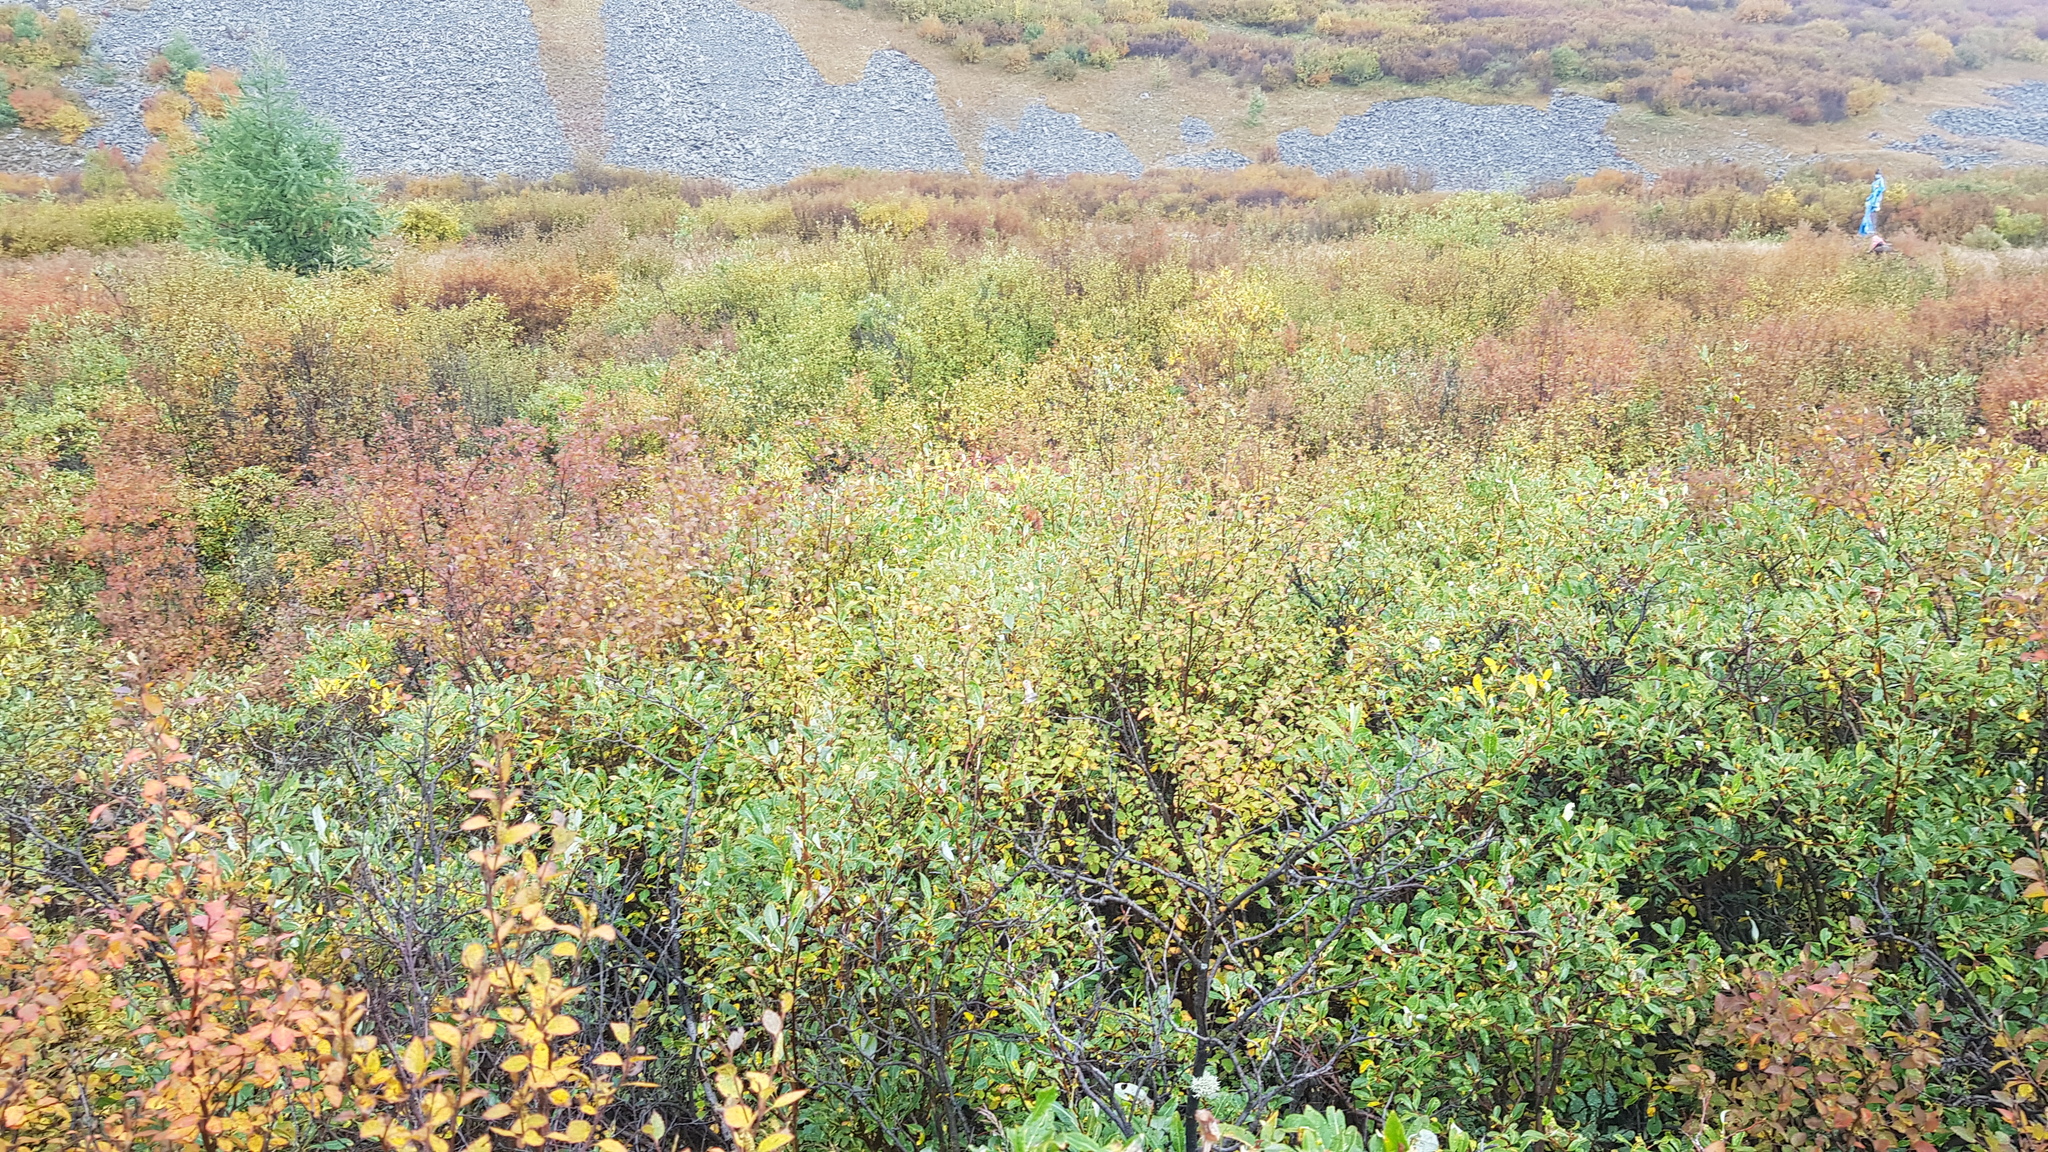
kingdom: Plantae
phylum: Tracheophyta
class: Magnoliopsida
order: Fagales
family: Betulaceae
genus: Betula
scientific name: Betula fruticosa
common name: Japanese bog birch
